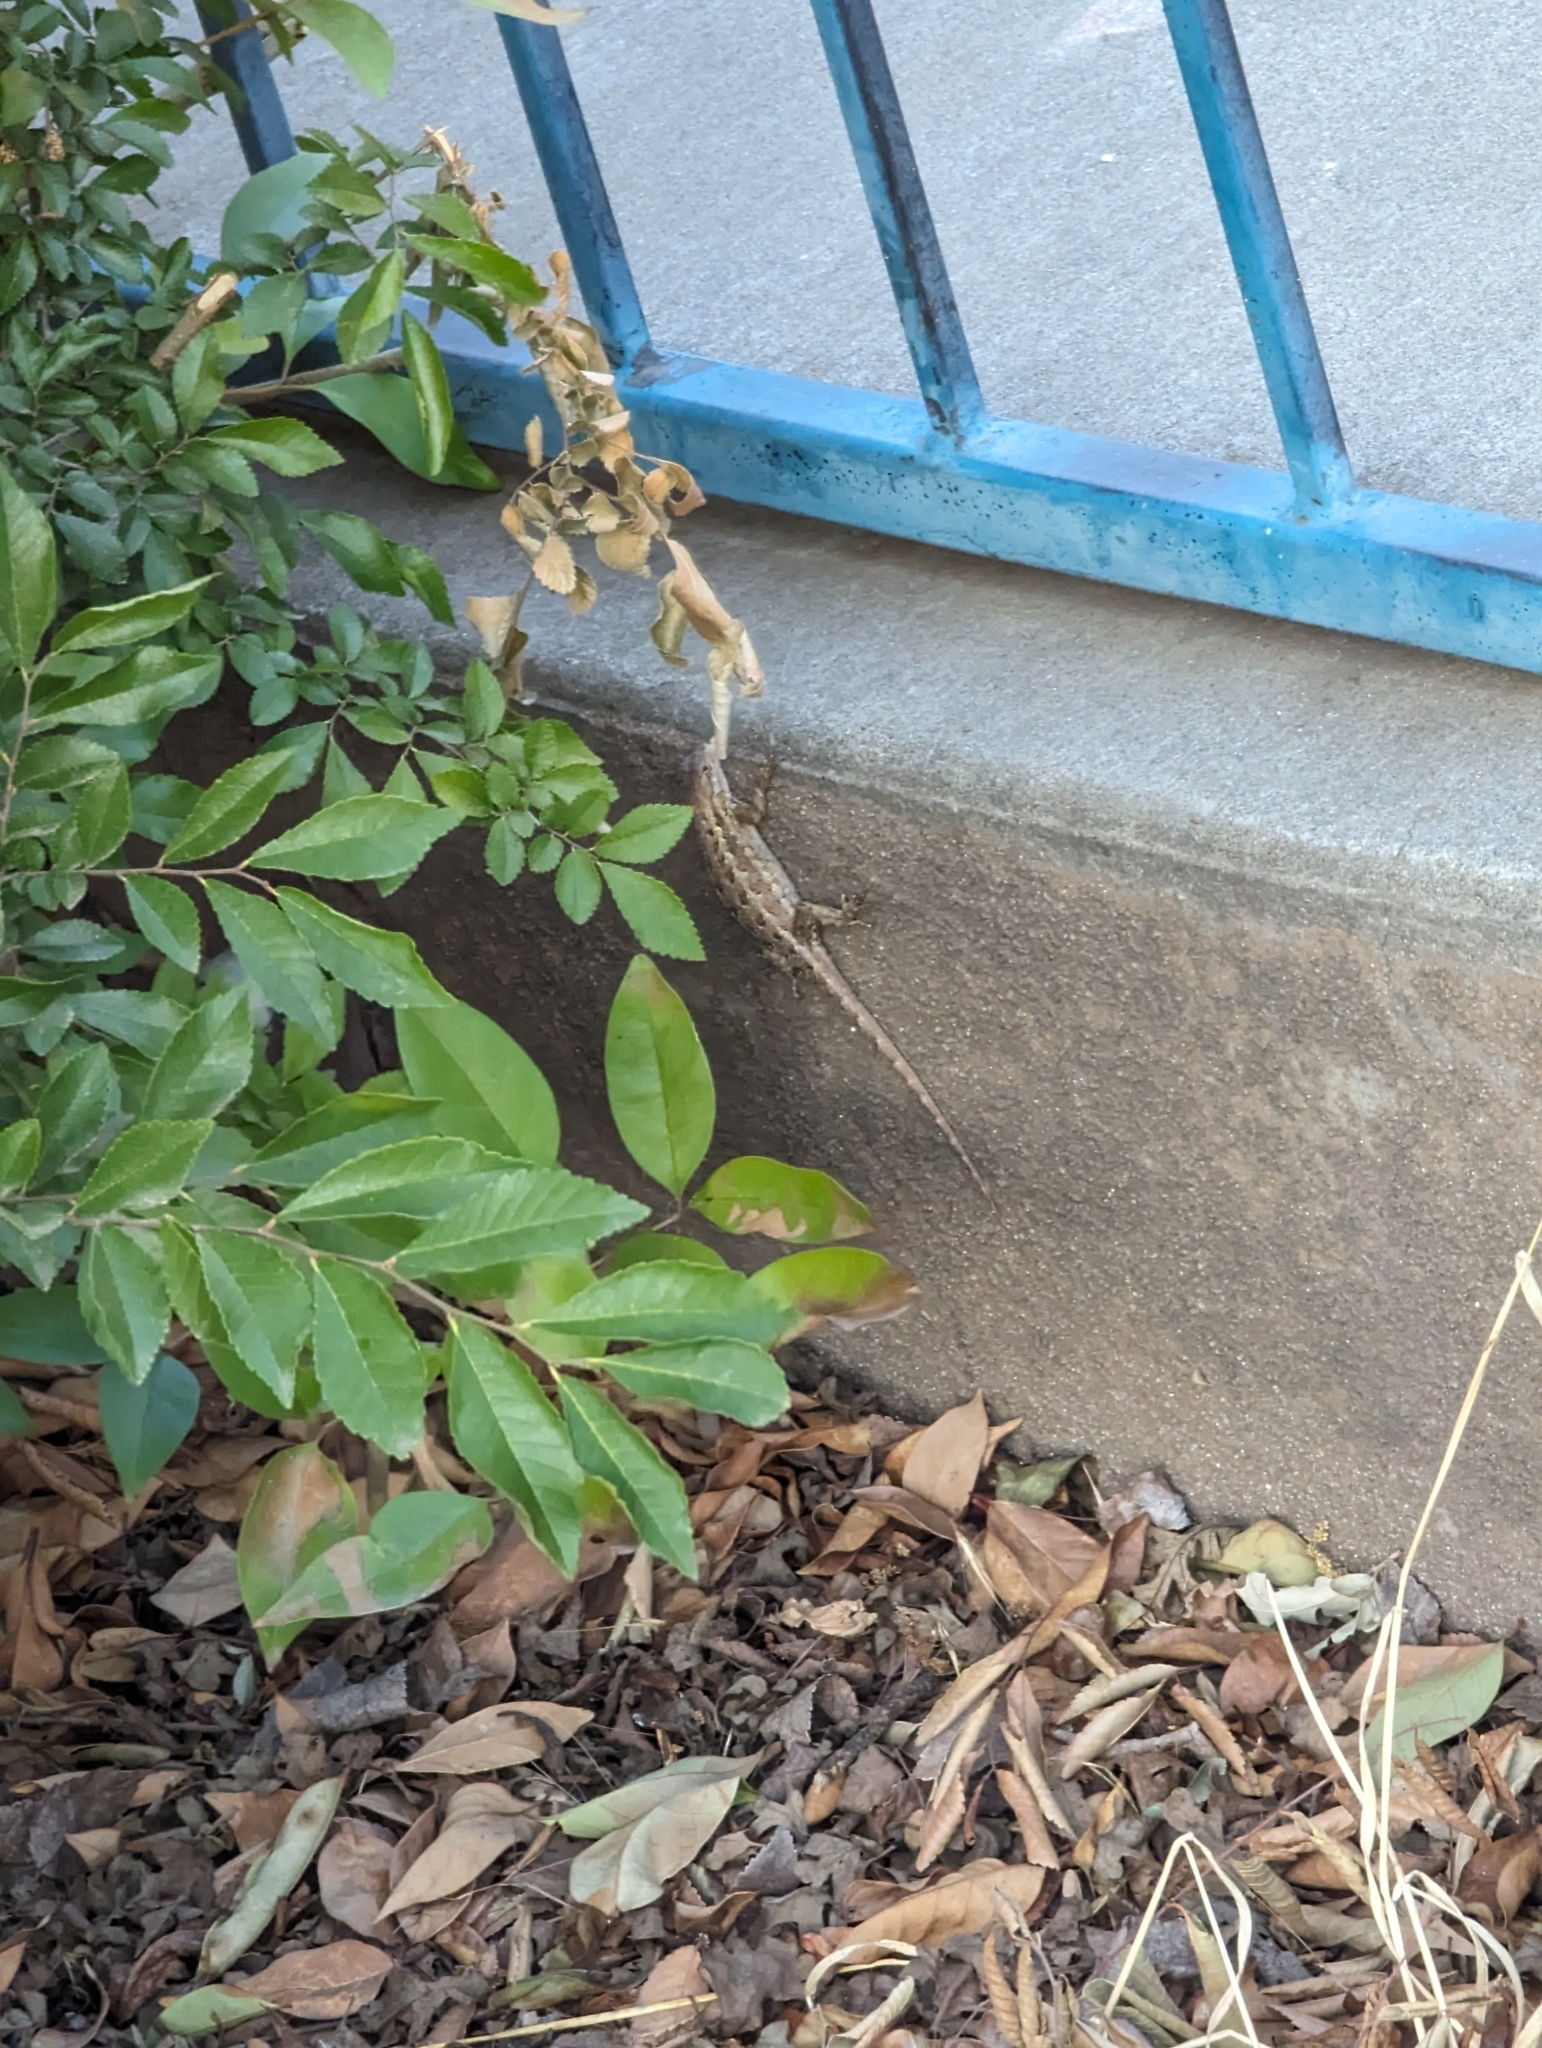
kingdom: Animalia
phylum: Chordata
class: Squamata
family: Phrynosomatidae
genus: Sceloporus
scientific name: Sceloporus occidentalis
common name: Western fence lizard
